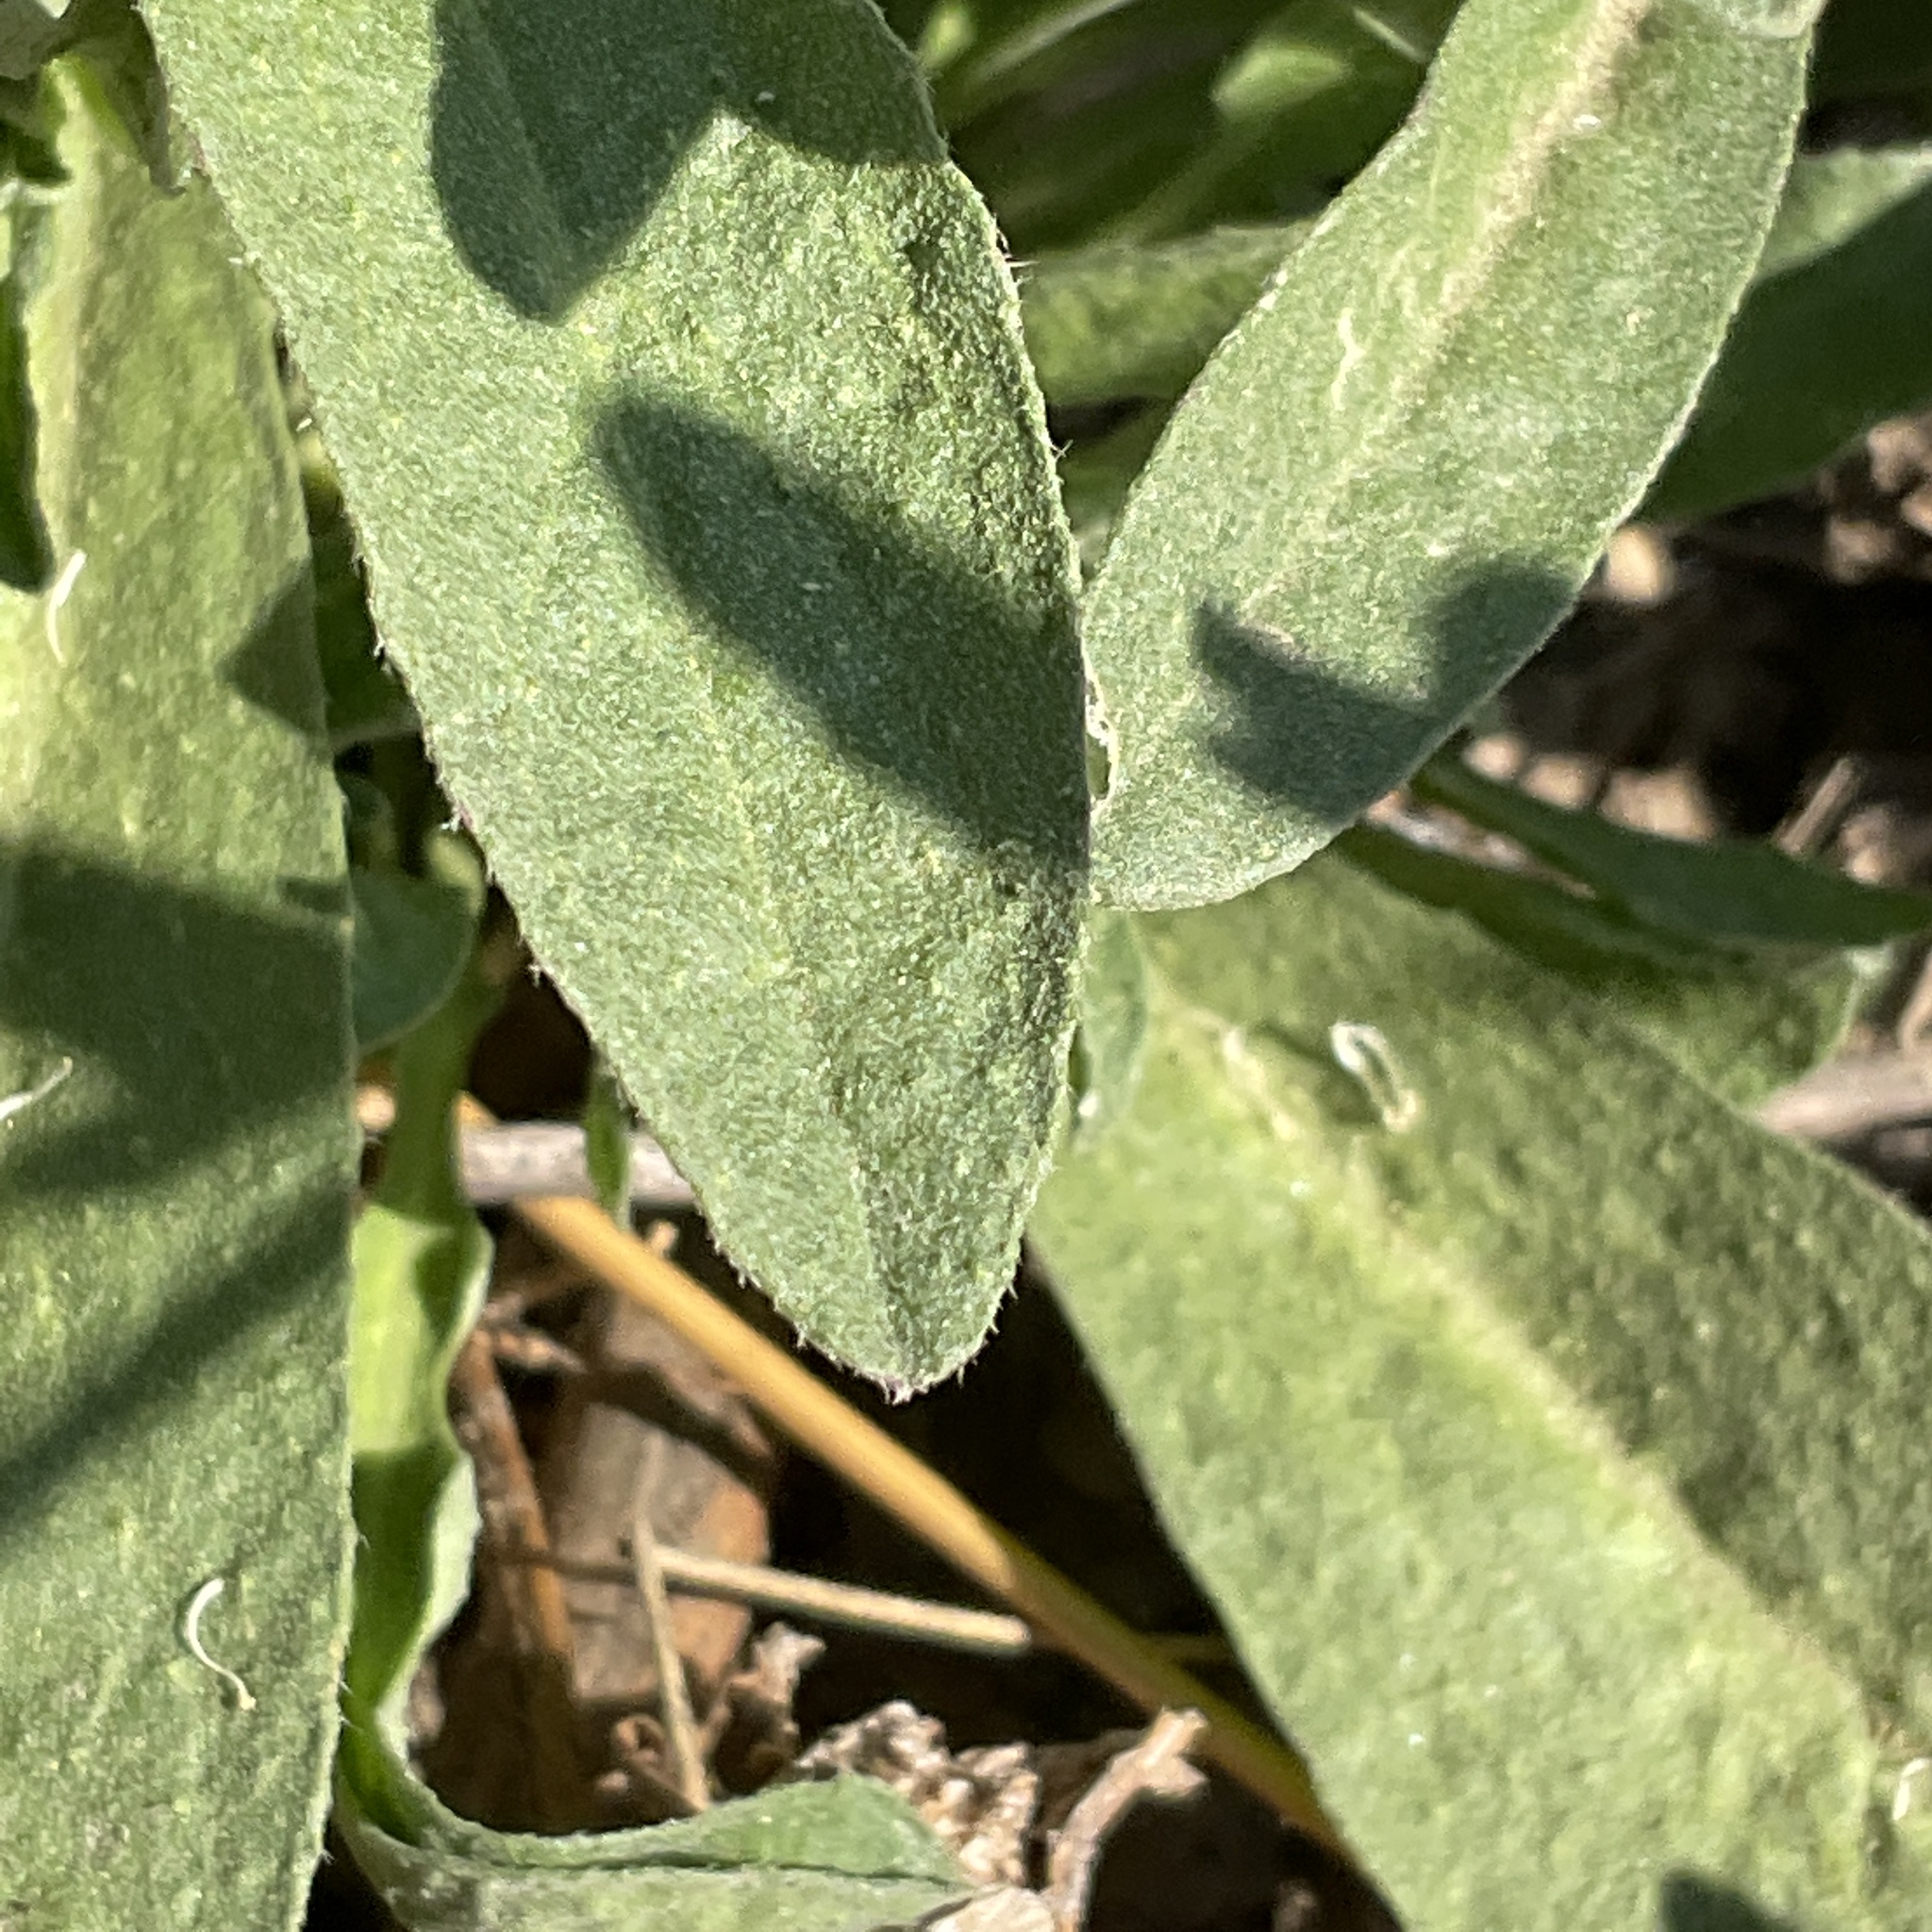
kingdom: Plantae
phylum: Tracheophyta
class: Magnoliopsida
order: Brassicales
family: Brassicaceae
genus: Berteroa
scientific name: Berteroa incana
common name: Hoary alison
